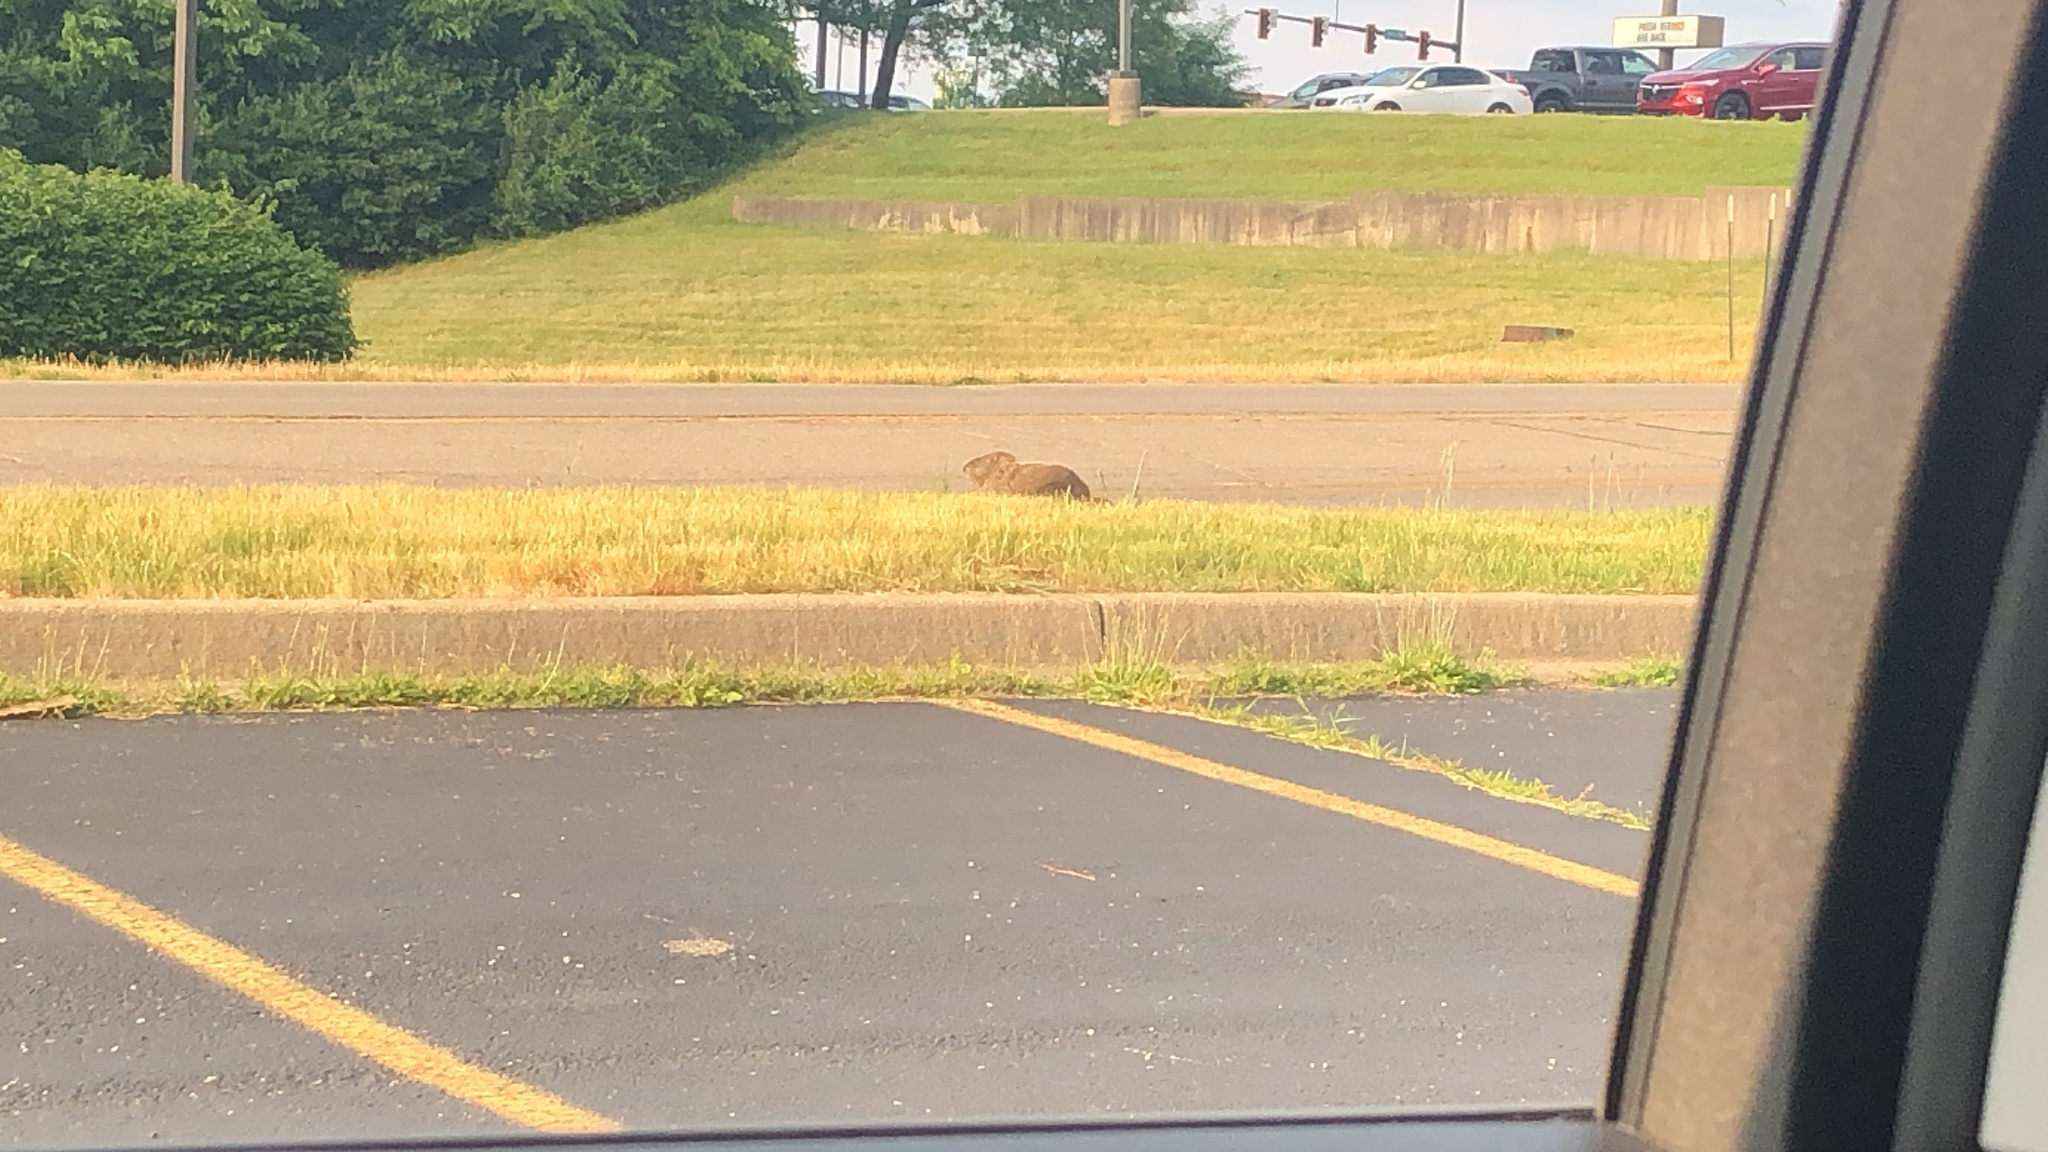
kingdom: Animalia
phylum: Chordata
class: Mammalia
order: Rodentia
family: Sciuridae
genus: Marmota
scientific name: Marmota monax
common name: Groundhog
